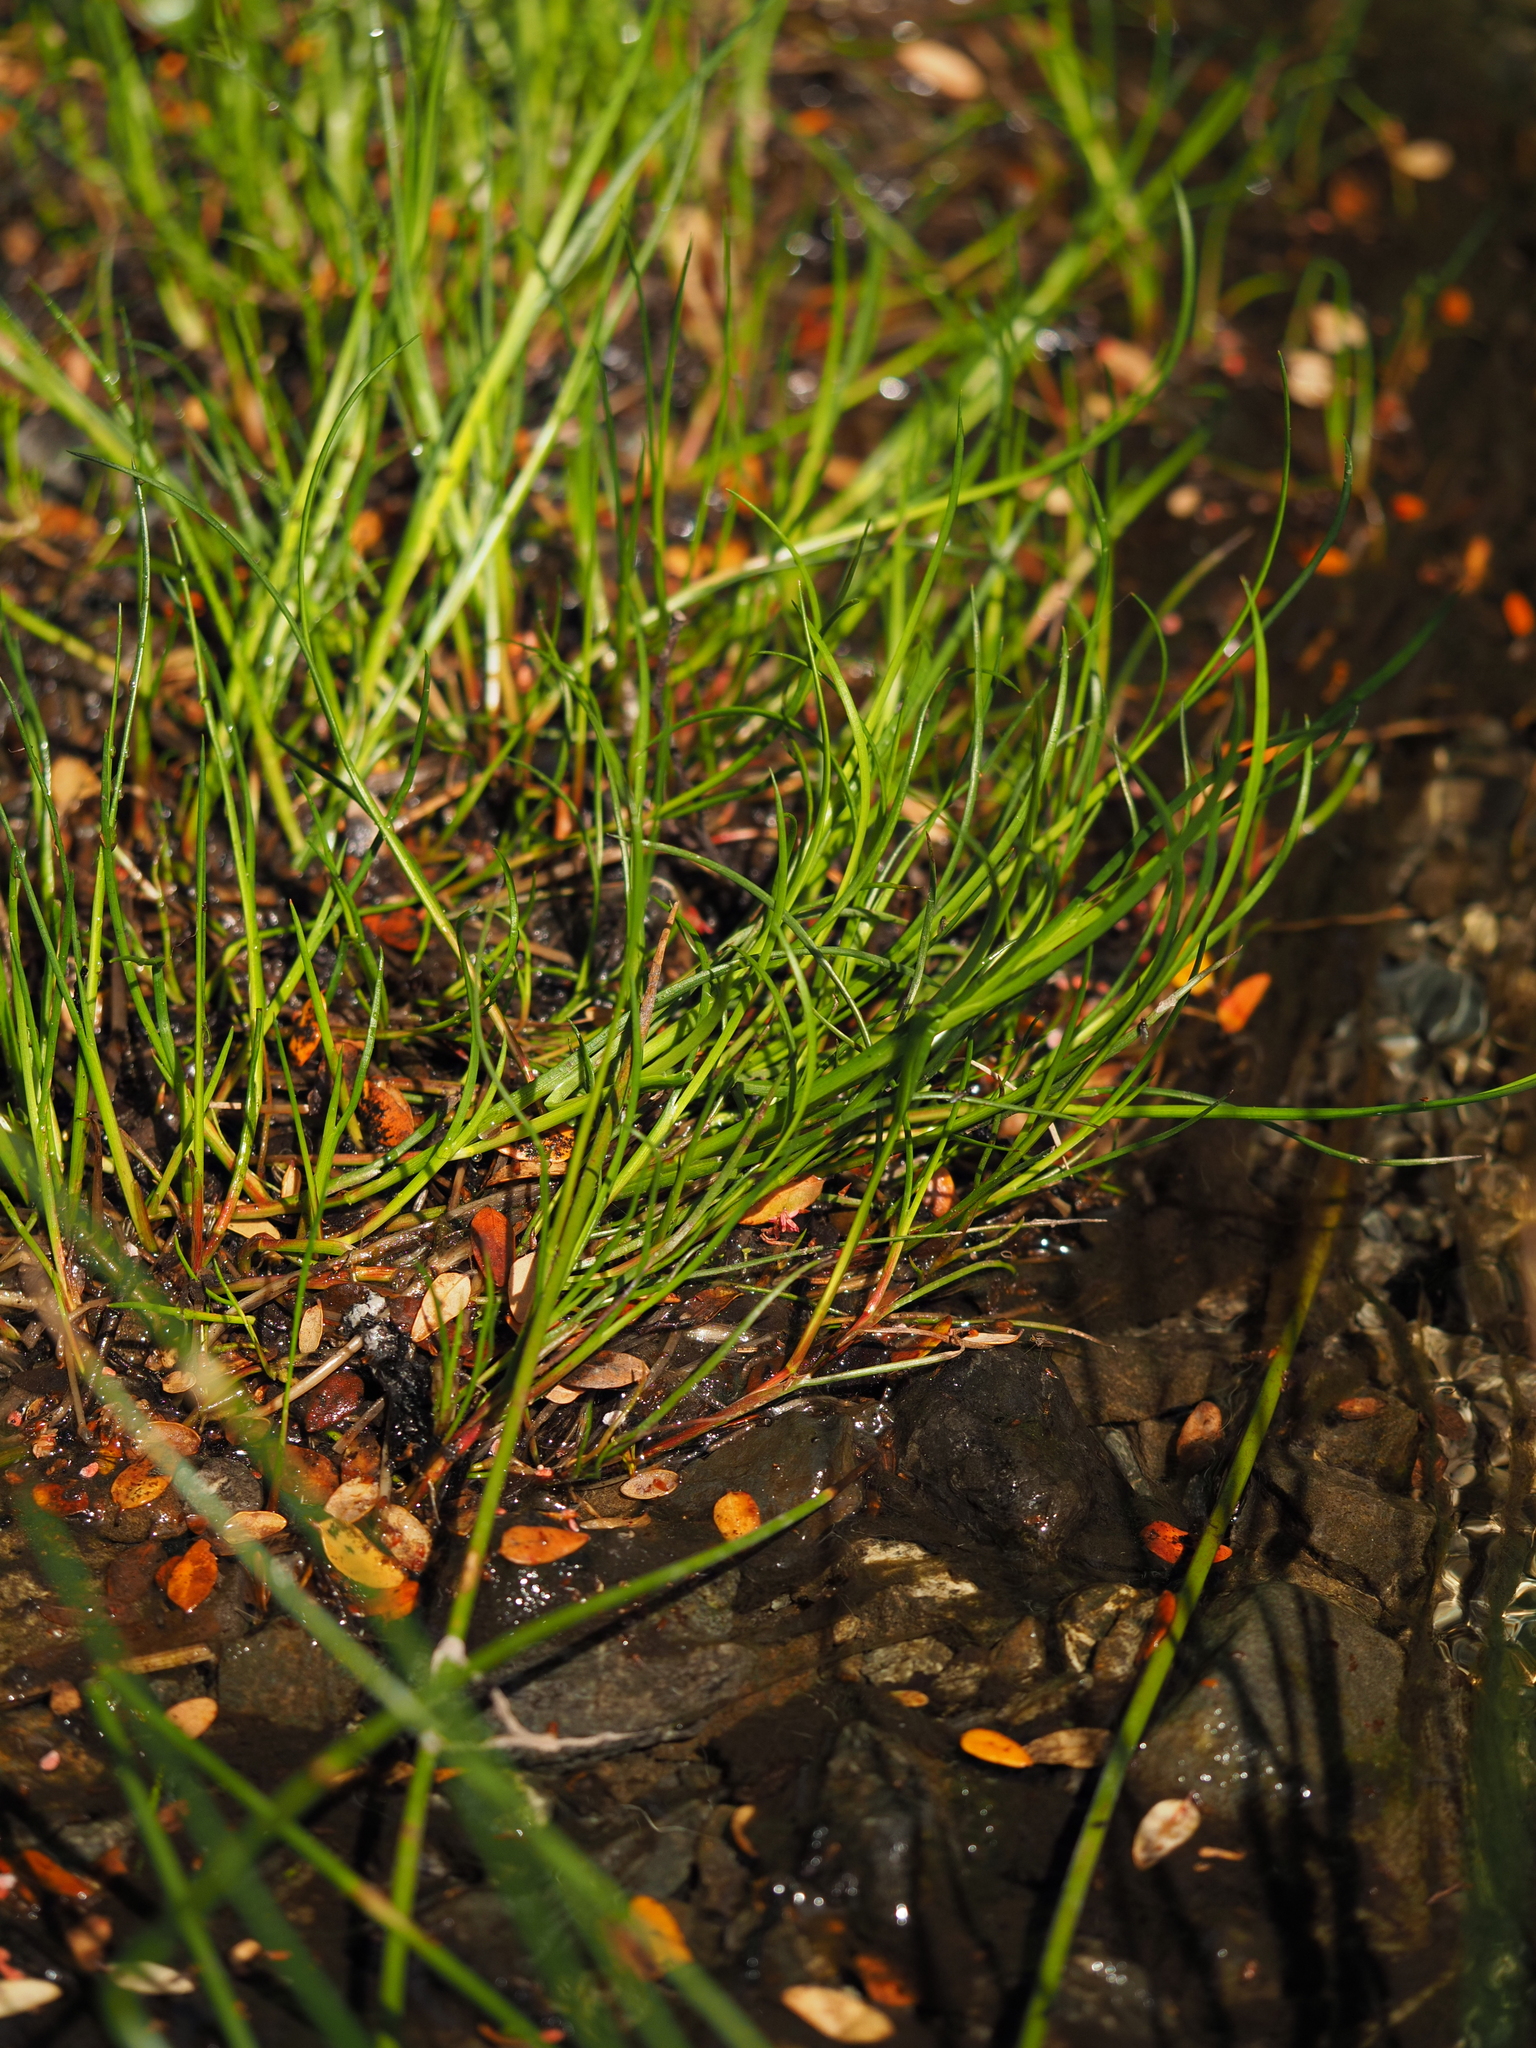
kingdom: Plantae
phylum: Tracheophyta
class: Liliopsida
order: Poales
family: Juncaceae
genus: Juncus
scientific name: Juncus articulatus
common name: Jointed rush
